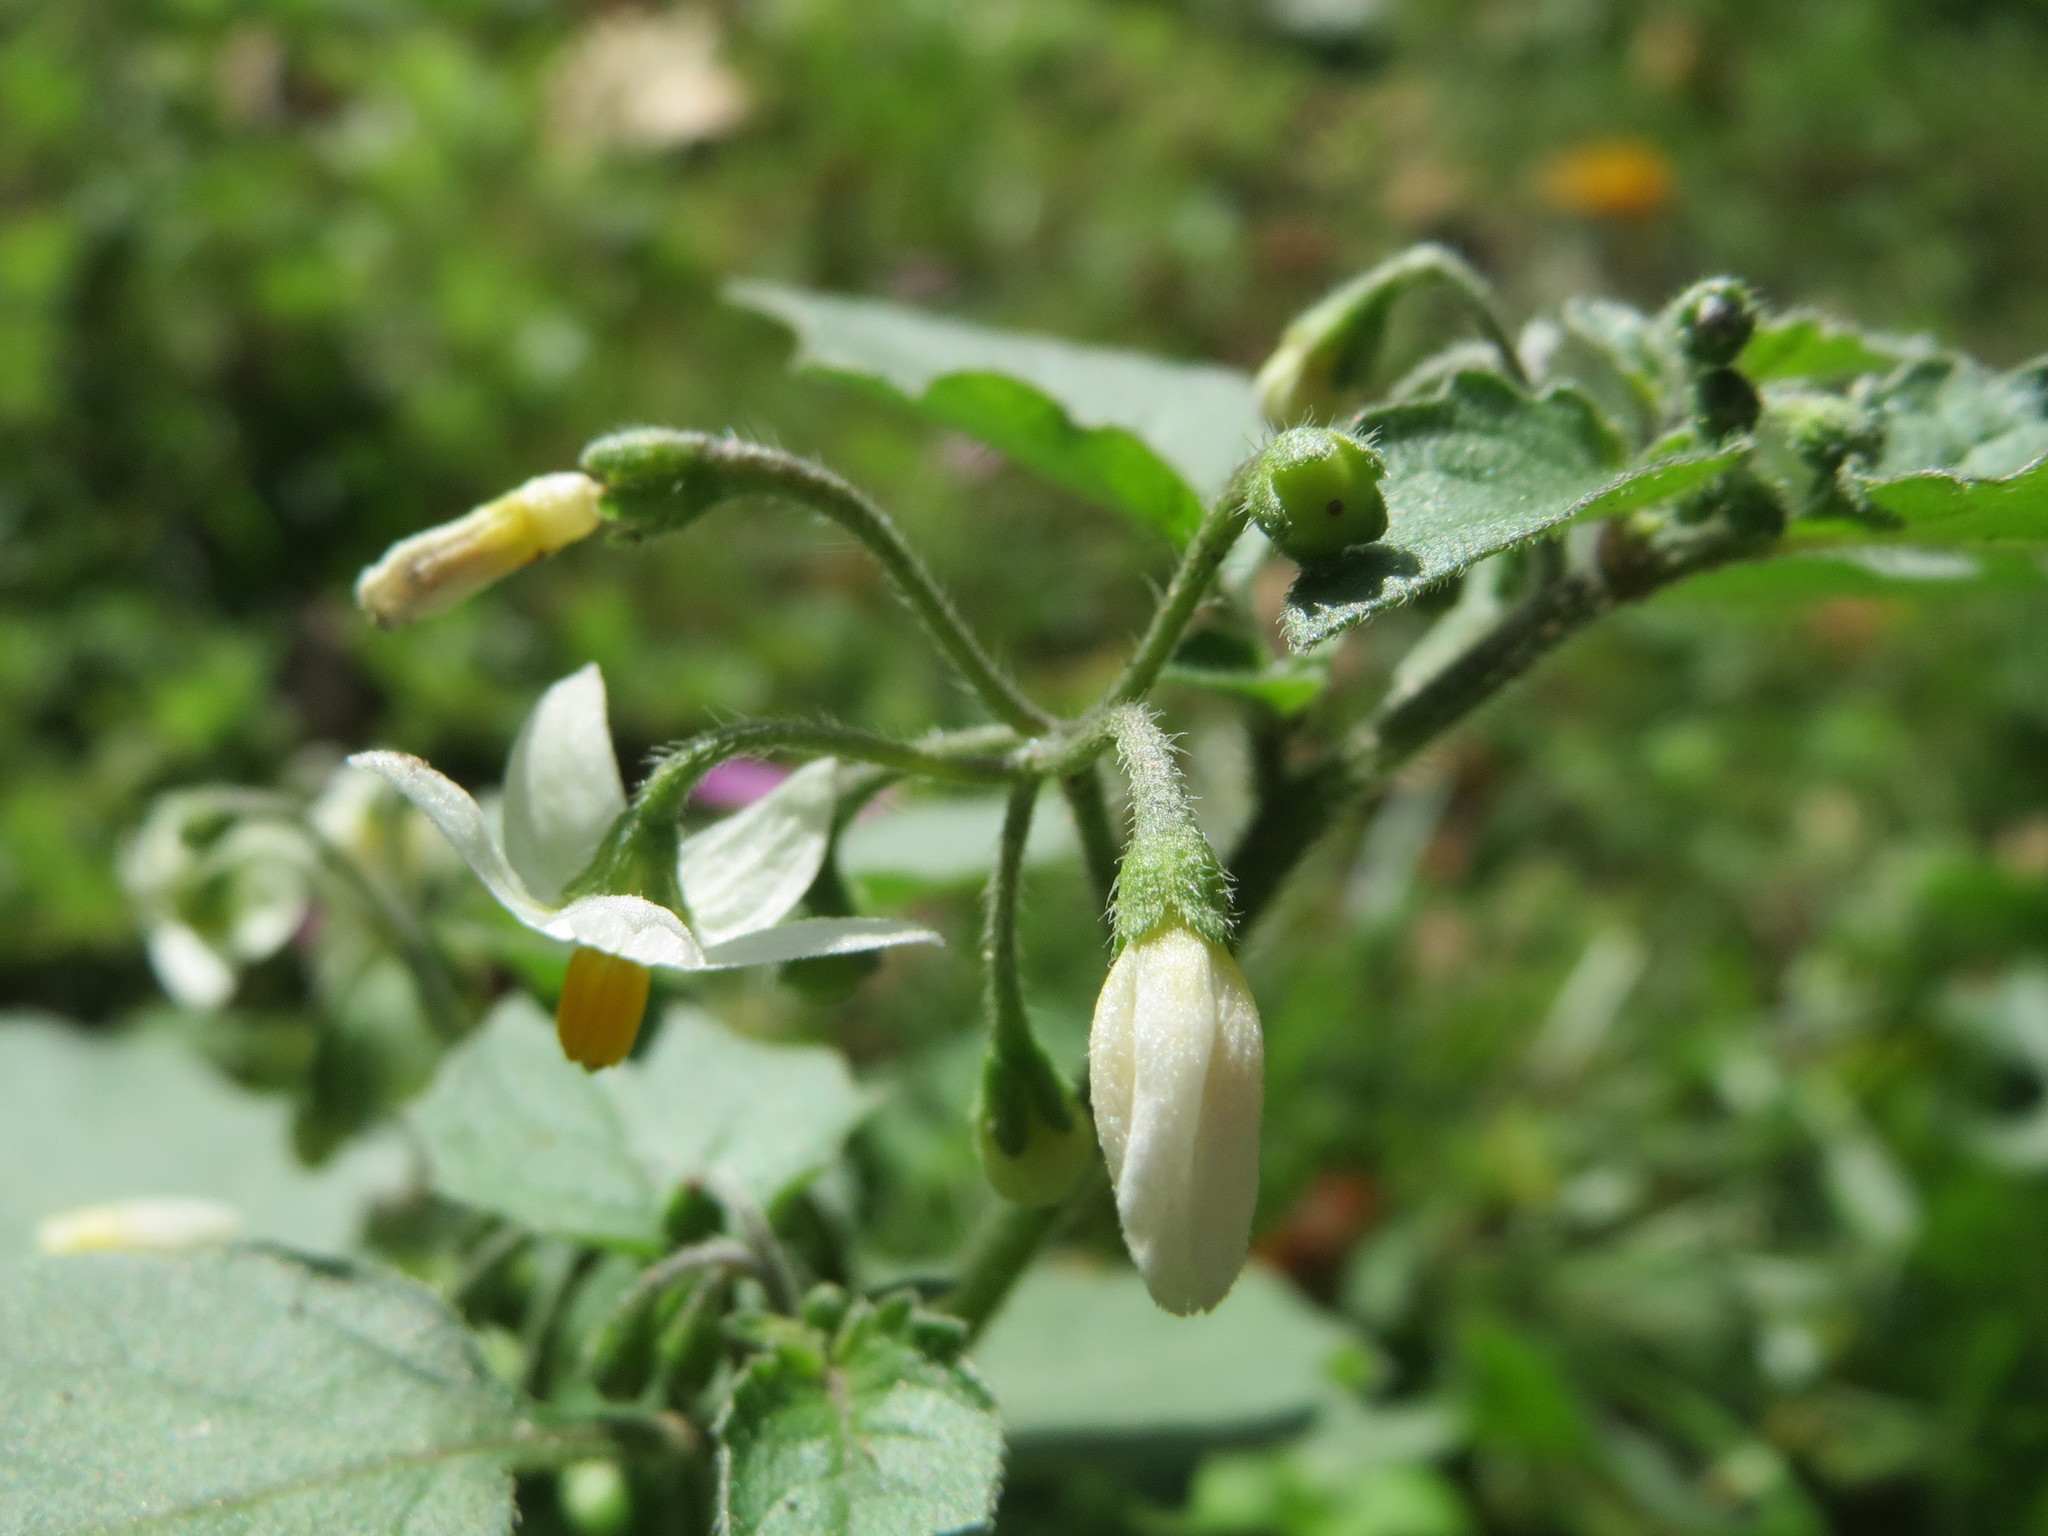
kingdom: Plantae
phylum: Tracheophyta
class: Magnoliopsida
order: Solanales
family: Solanaceae
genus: Solanum
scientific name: Solanum nigrum
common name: Black nightshade
